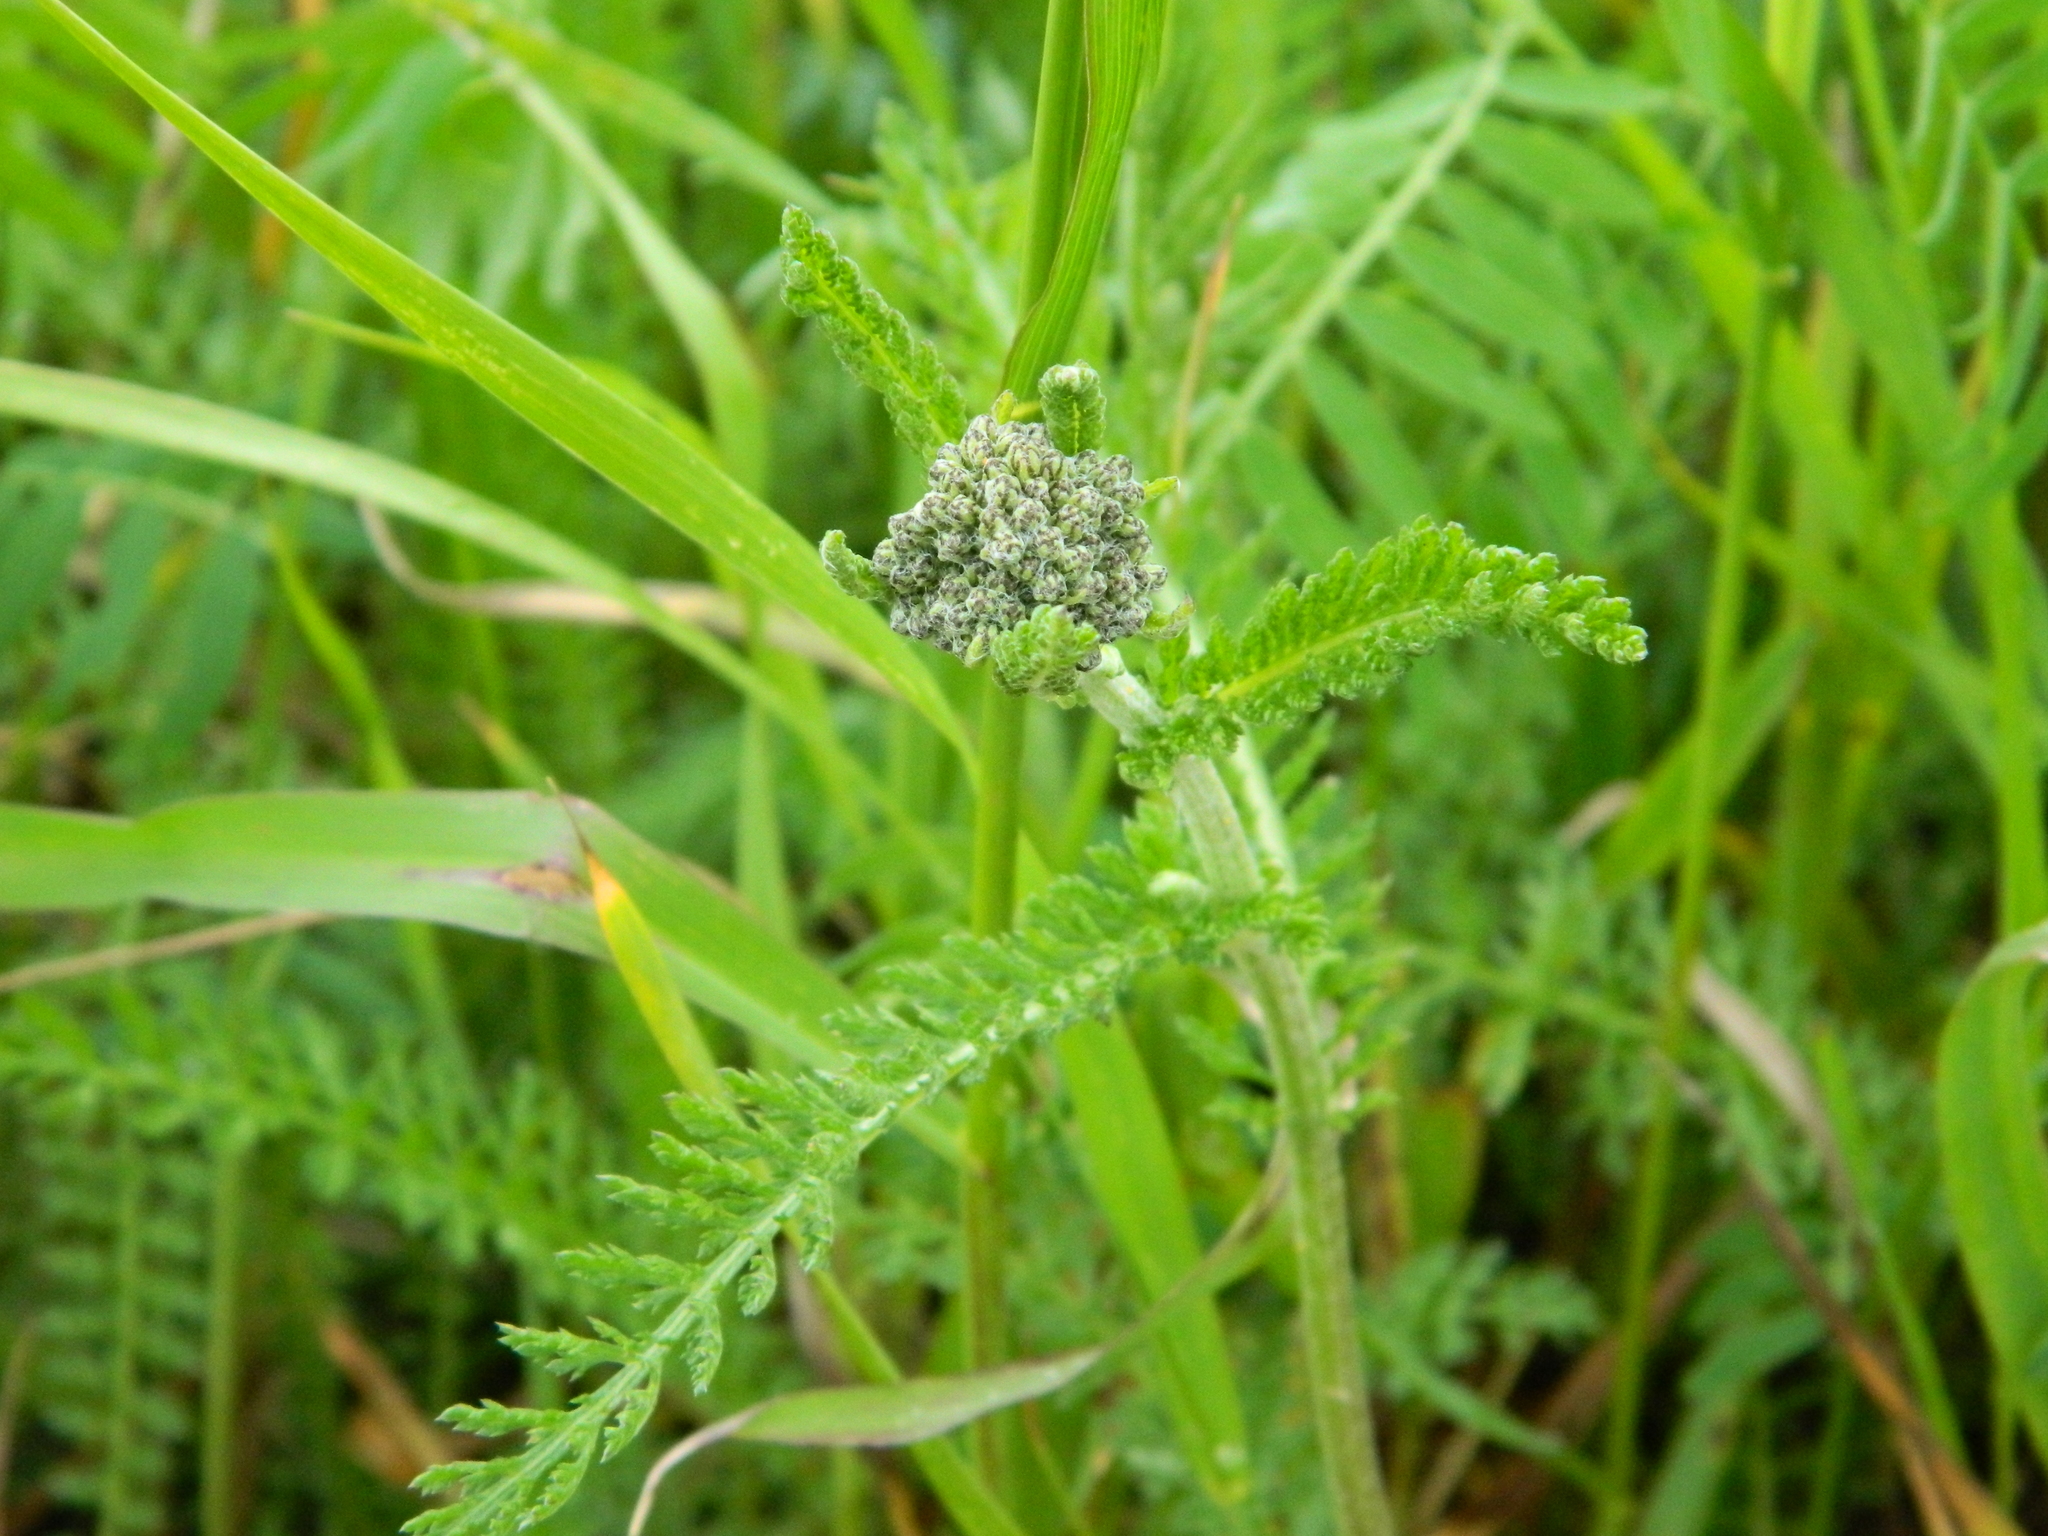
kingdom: Plantae
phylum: Tracheophyta
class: Magnoliopsida
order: Asterales
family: Asteraceae
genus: Achillea
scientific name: Achillea millefolium
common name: Yarrow
